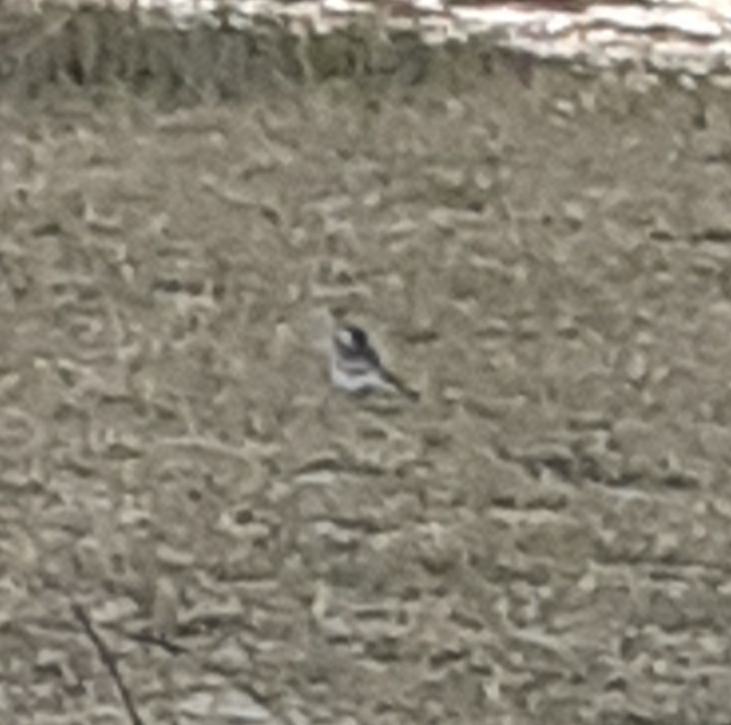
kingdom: Animalia
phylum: Chordata
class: Aves
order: Passeriformes
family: Motacillidae
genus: Motacilla
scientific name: Motacilla alba
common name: White wagtail
